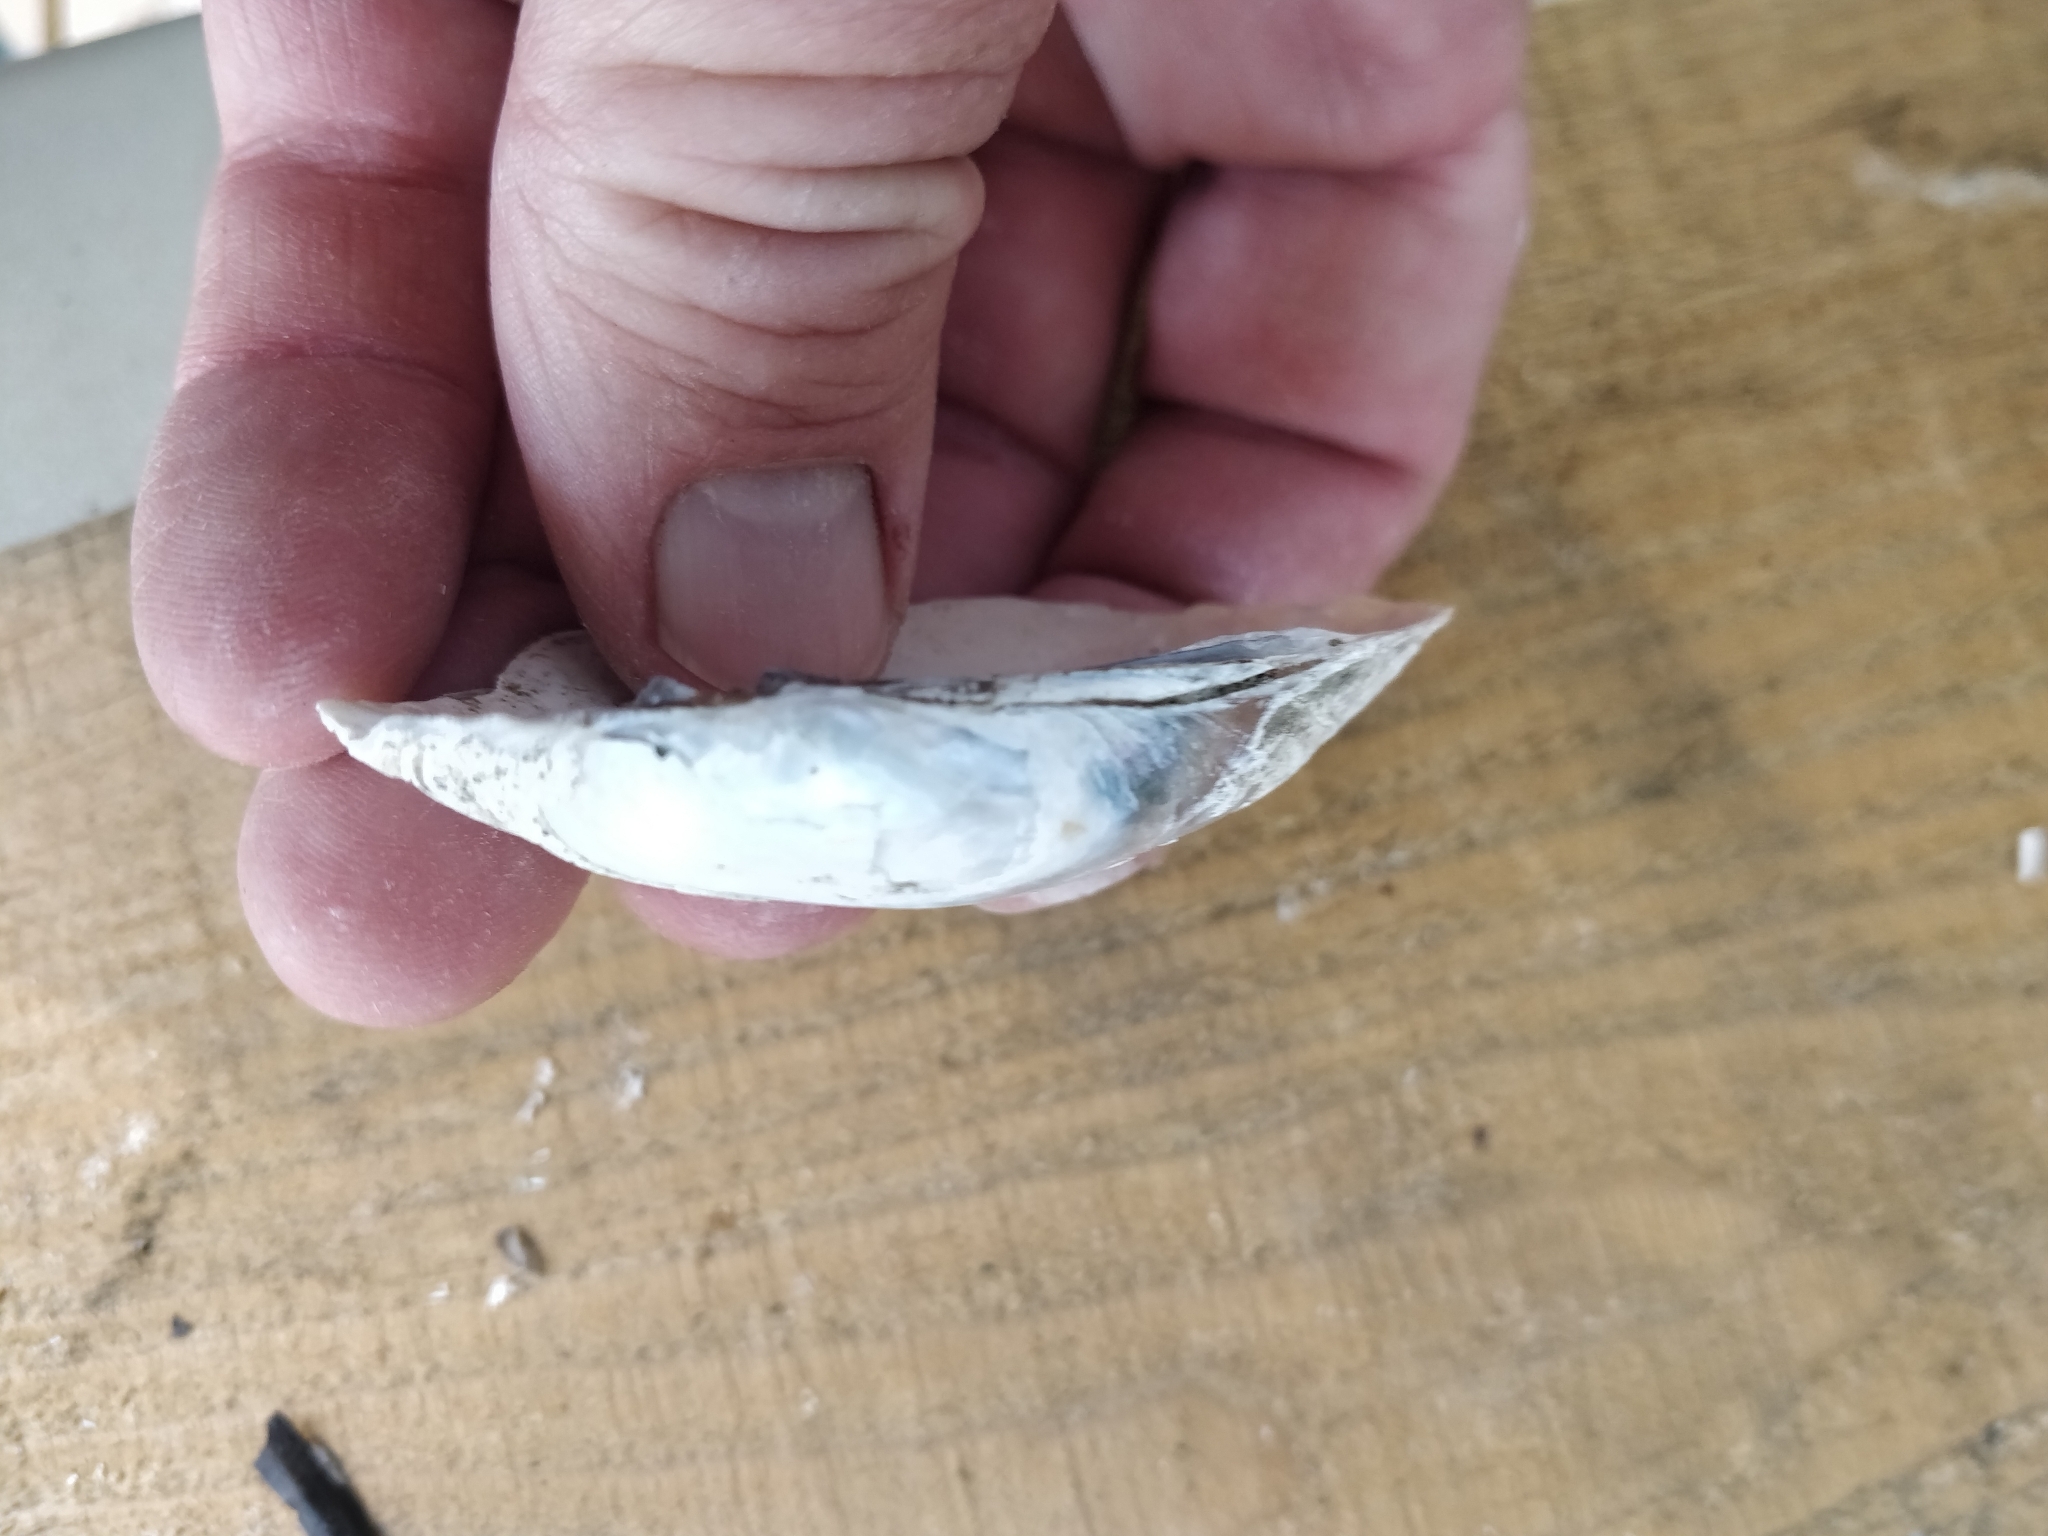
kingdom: Animalia
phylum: Mollusca
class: Bivalvia
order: Unionida
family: Unionidae
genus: Lampsilis
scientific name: Lampsilis siliquoidea
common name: Fatmucket
